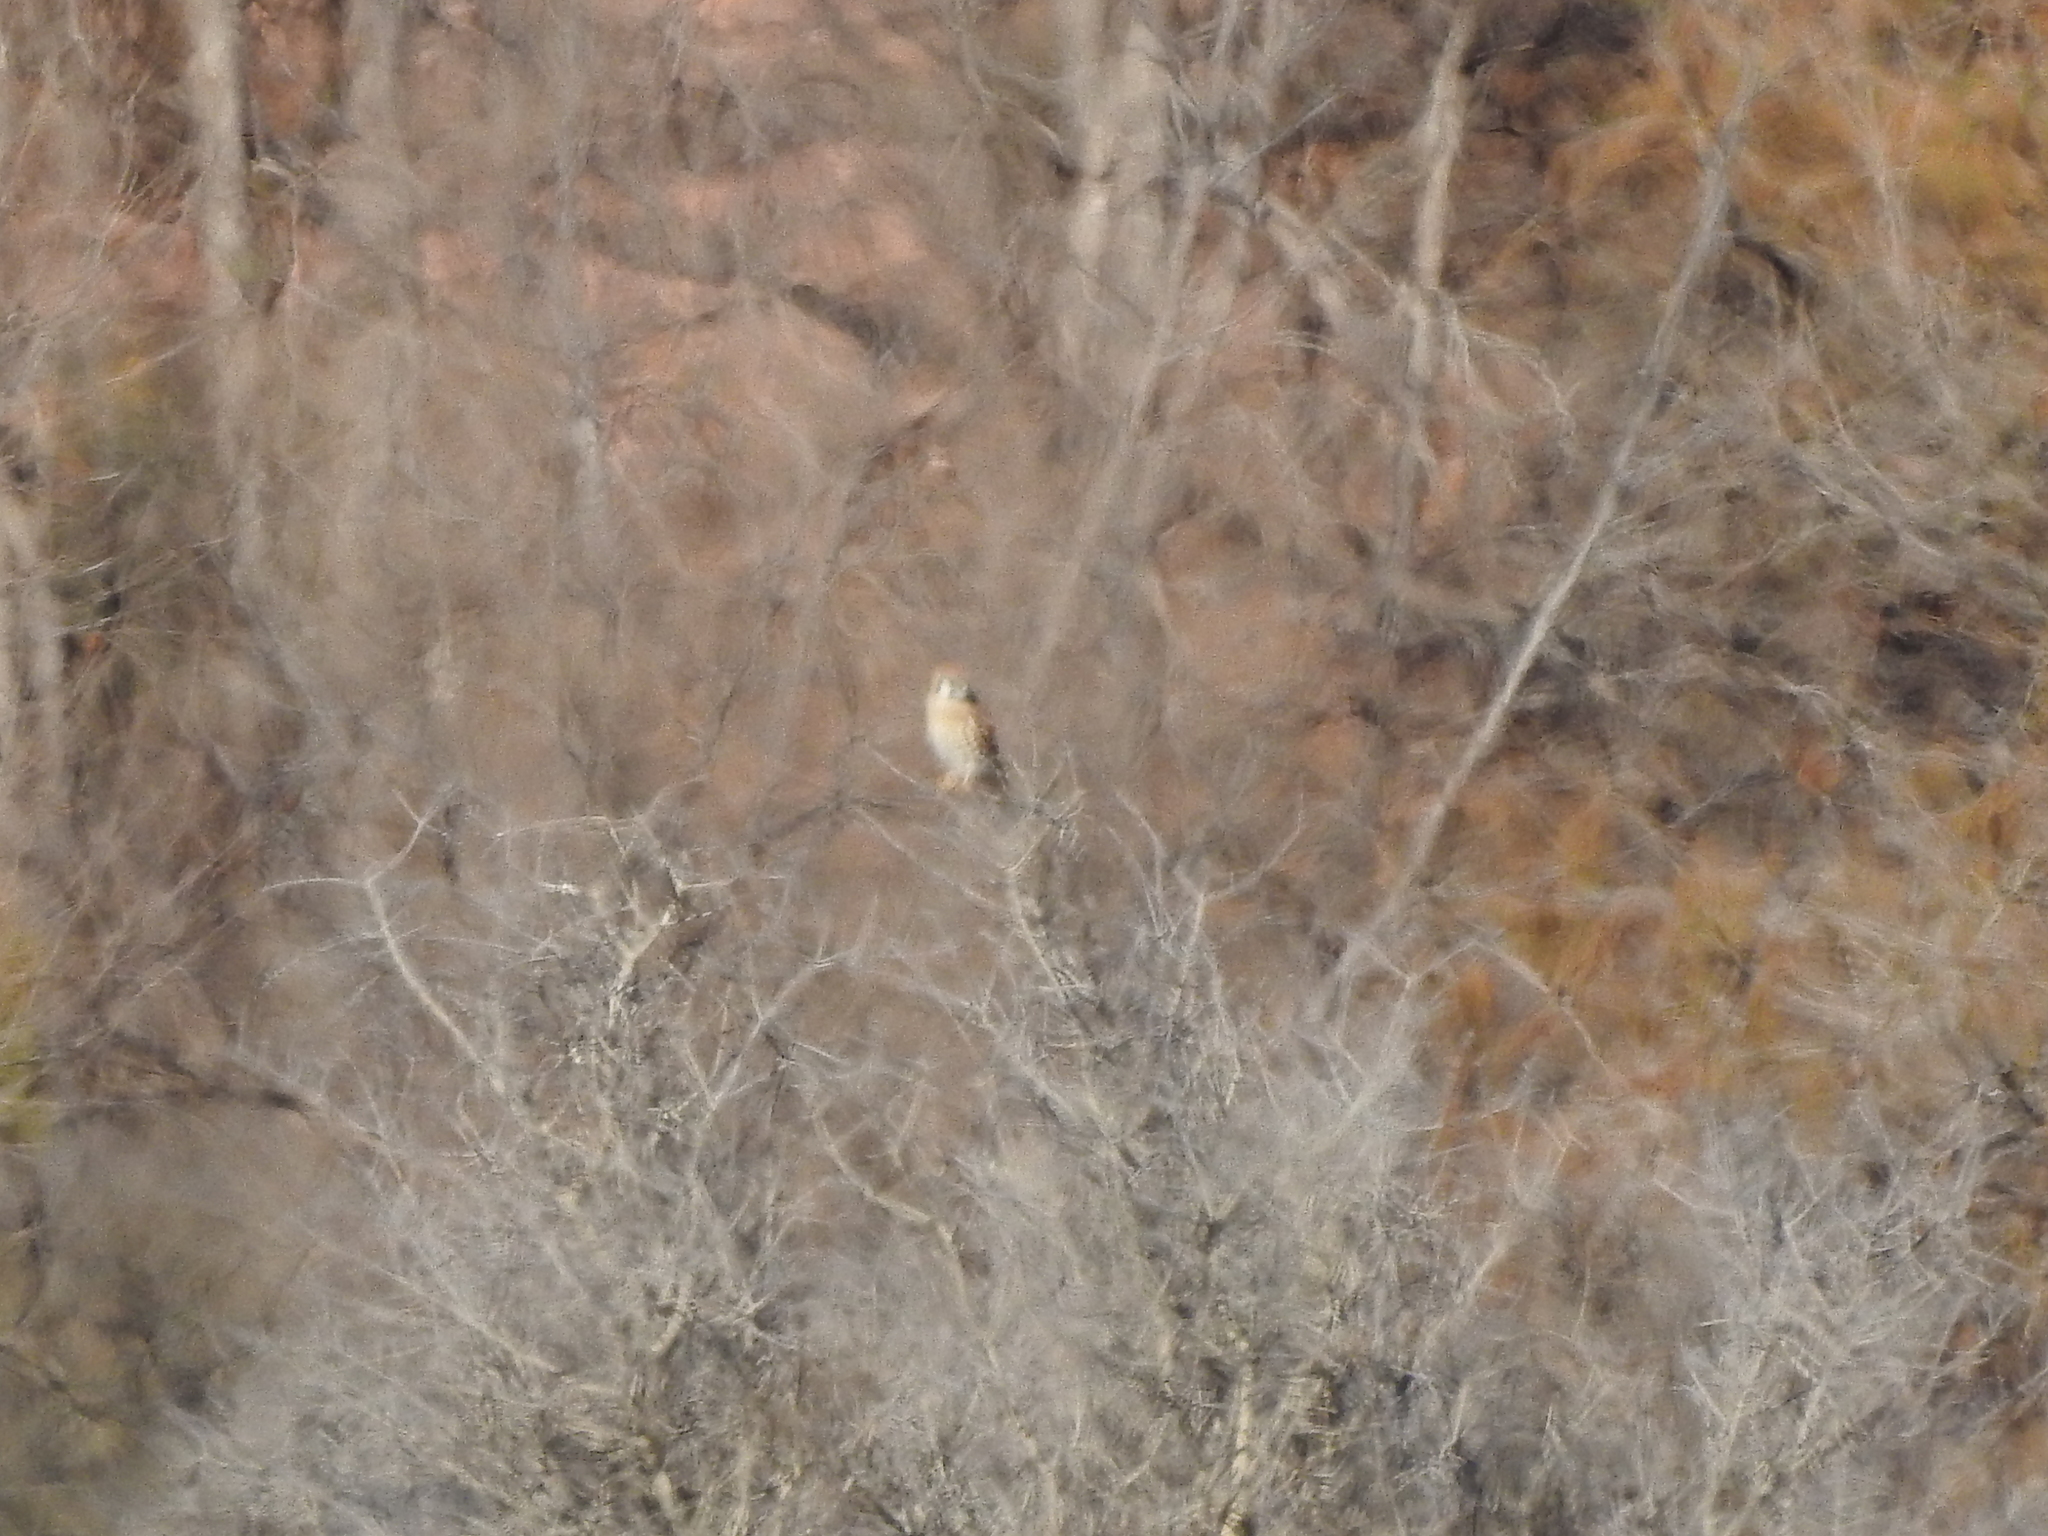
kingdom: Animalia
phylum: Chordata
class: Aves
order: Falconiformes
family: Falconidae
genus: Falco
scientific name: Falco sparverius
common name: American kestrel
